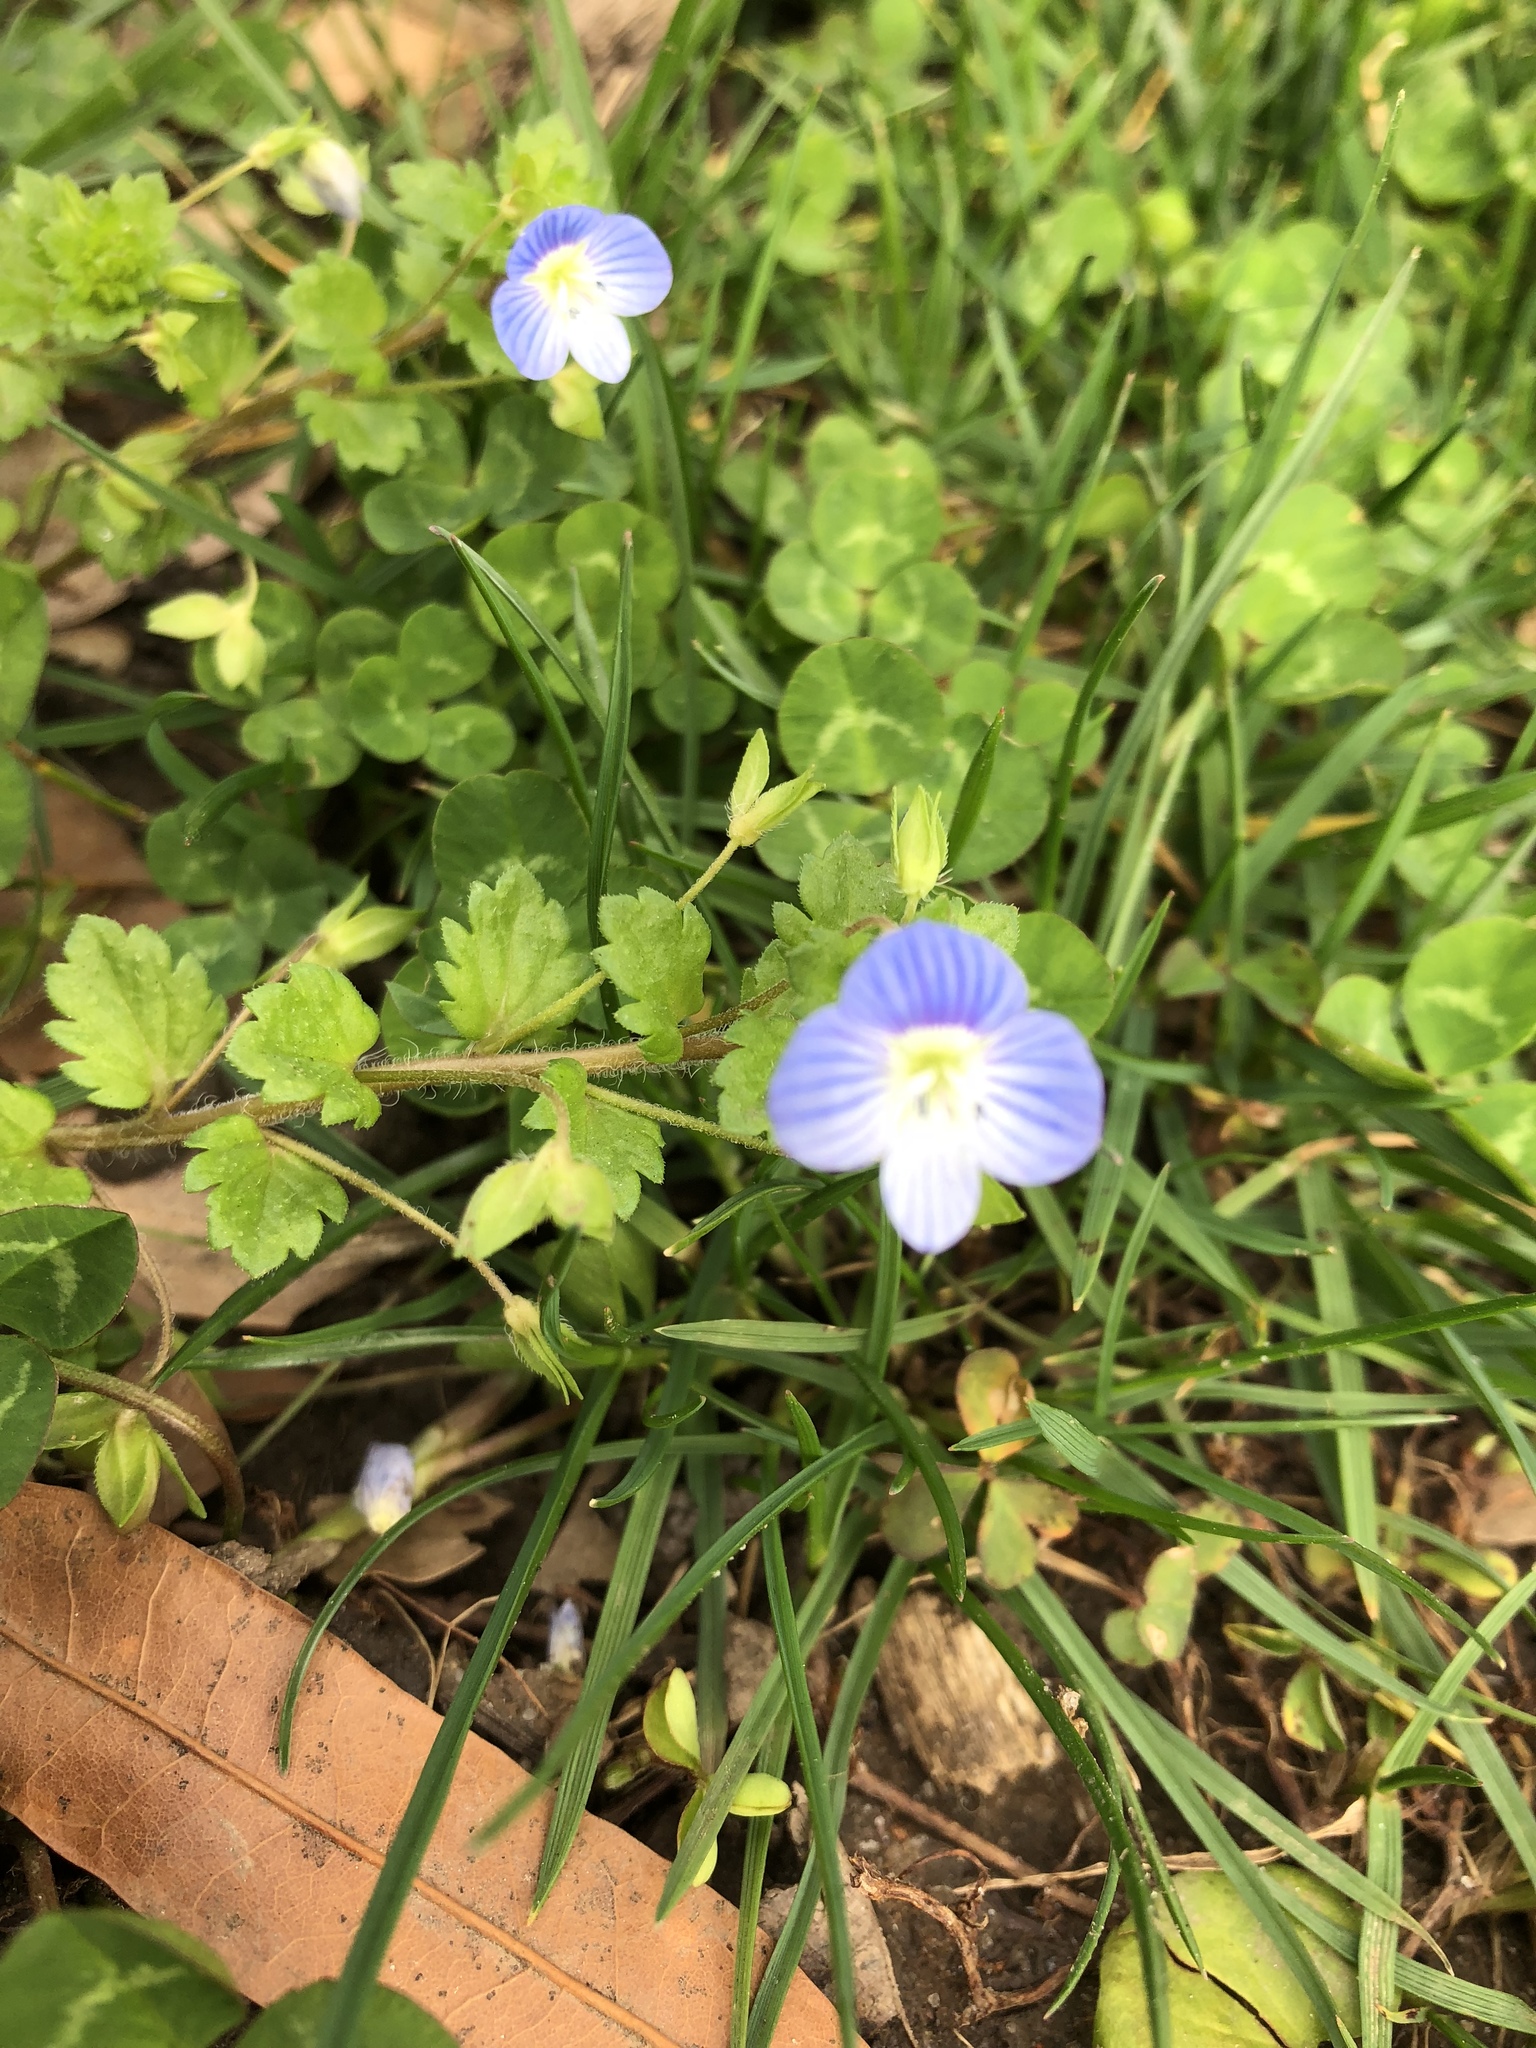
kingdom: Plantae
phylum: Tracheophyta
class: Magnoliopsida
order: Lamiales
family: Plantaginaceae
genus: Veronica
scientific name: Veronica persica
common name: Common field-speedwell
